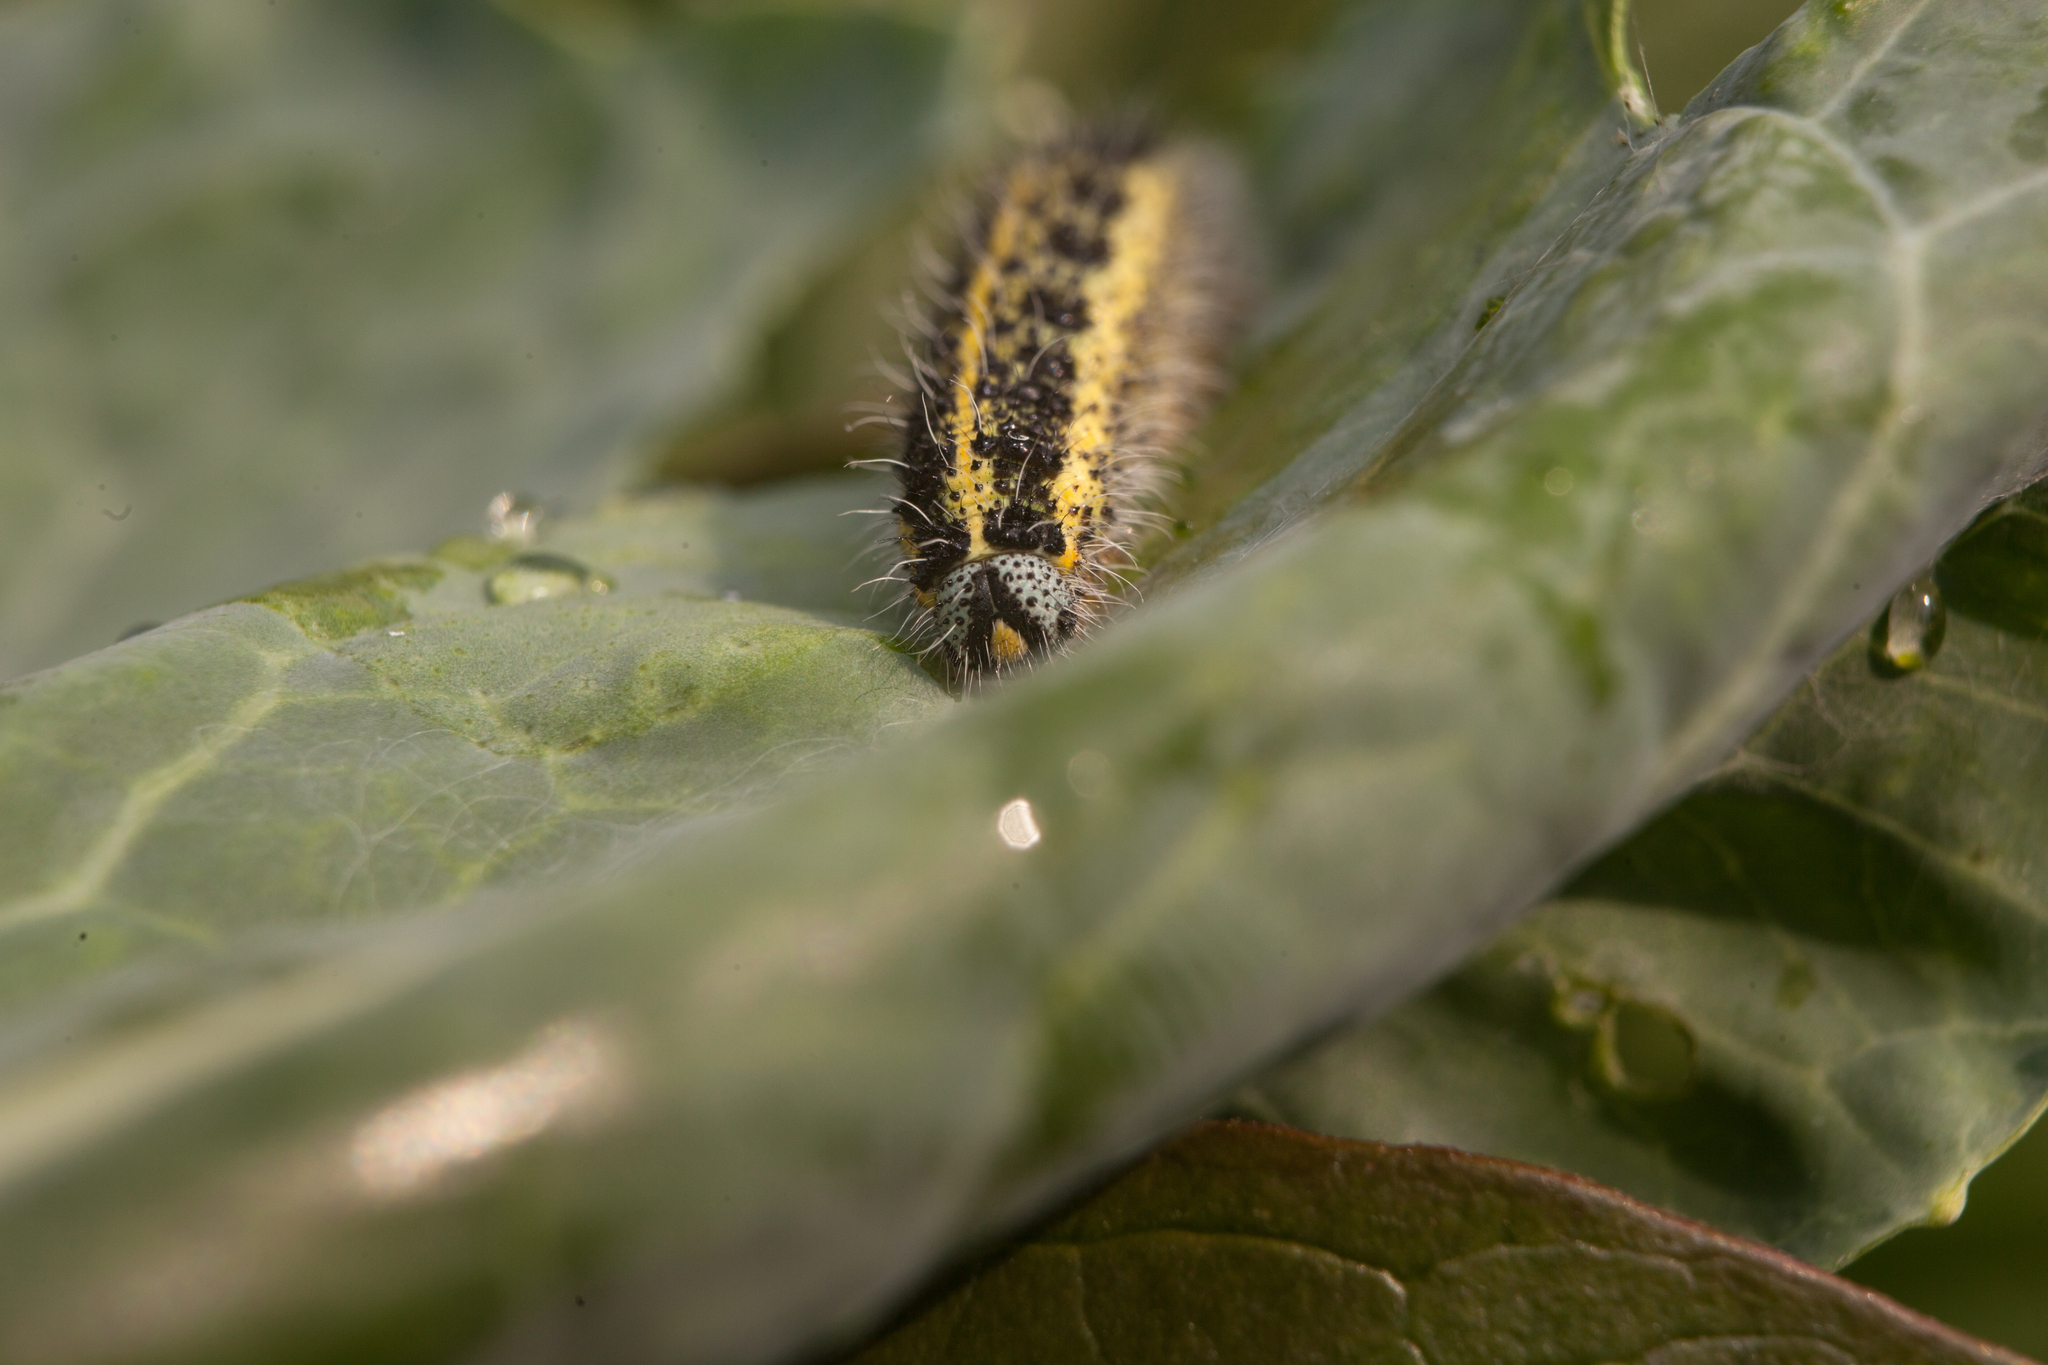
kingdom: Animalia
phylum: Arthropoda
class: Insecta
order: Lepidoptera
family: Pieridae
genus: Pieris
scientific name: Pieris brassicae
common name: Large white
